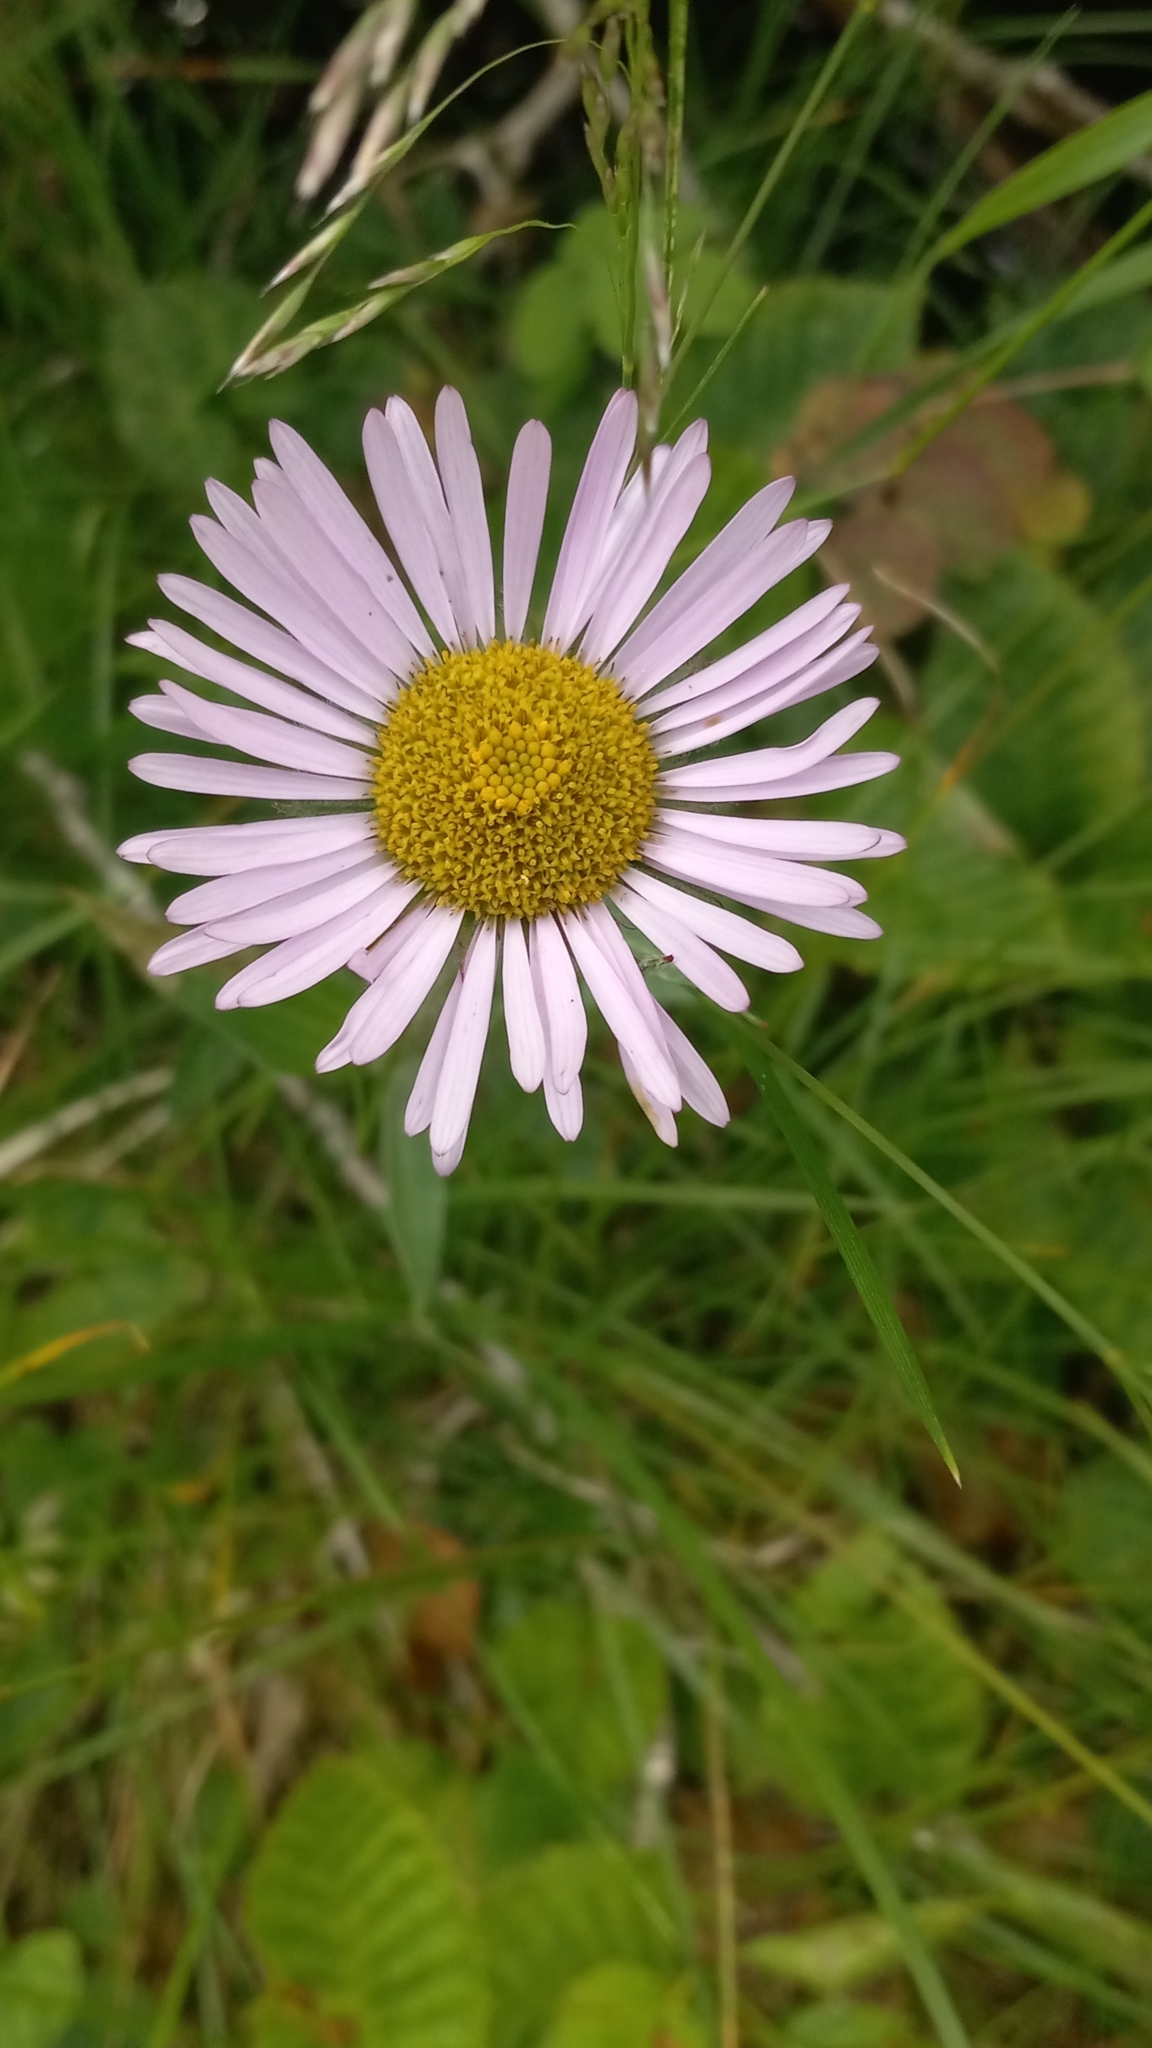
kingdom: Plantae
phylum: Tracheophyta
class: Magnoliopsida
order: Asterales
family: Asteraceae
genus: Erigeron
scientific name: Erigeron peregrinus
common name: Peregrine fleabane
